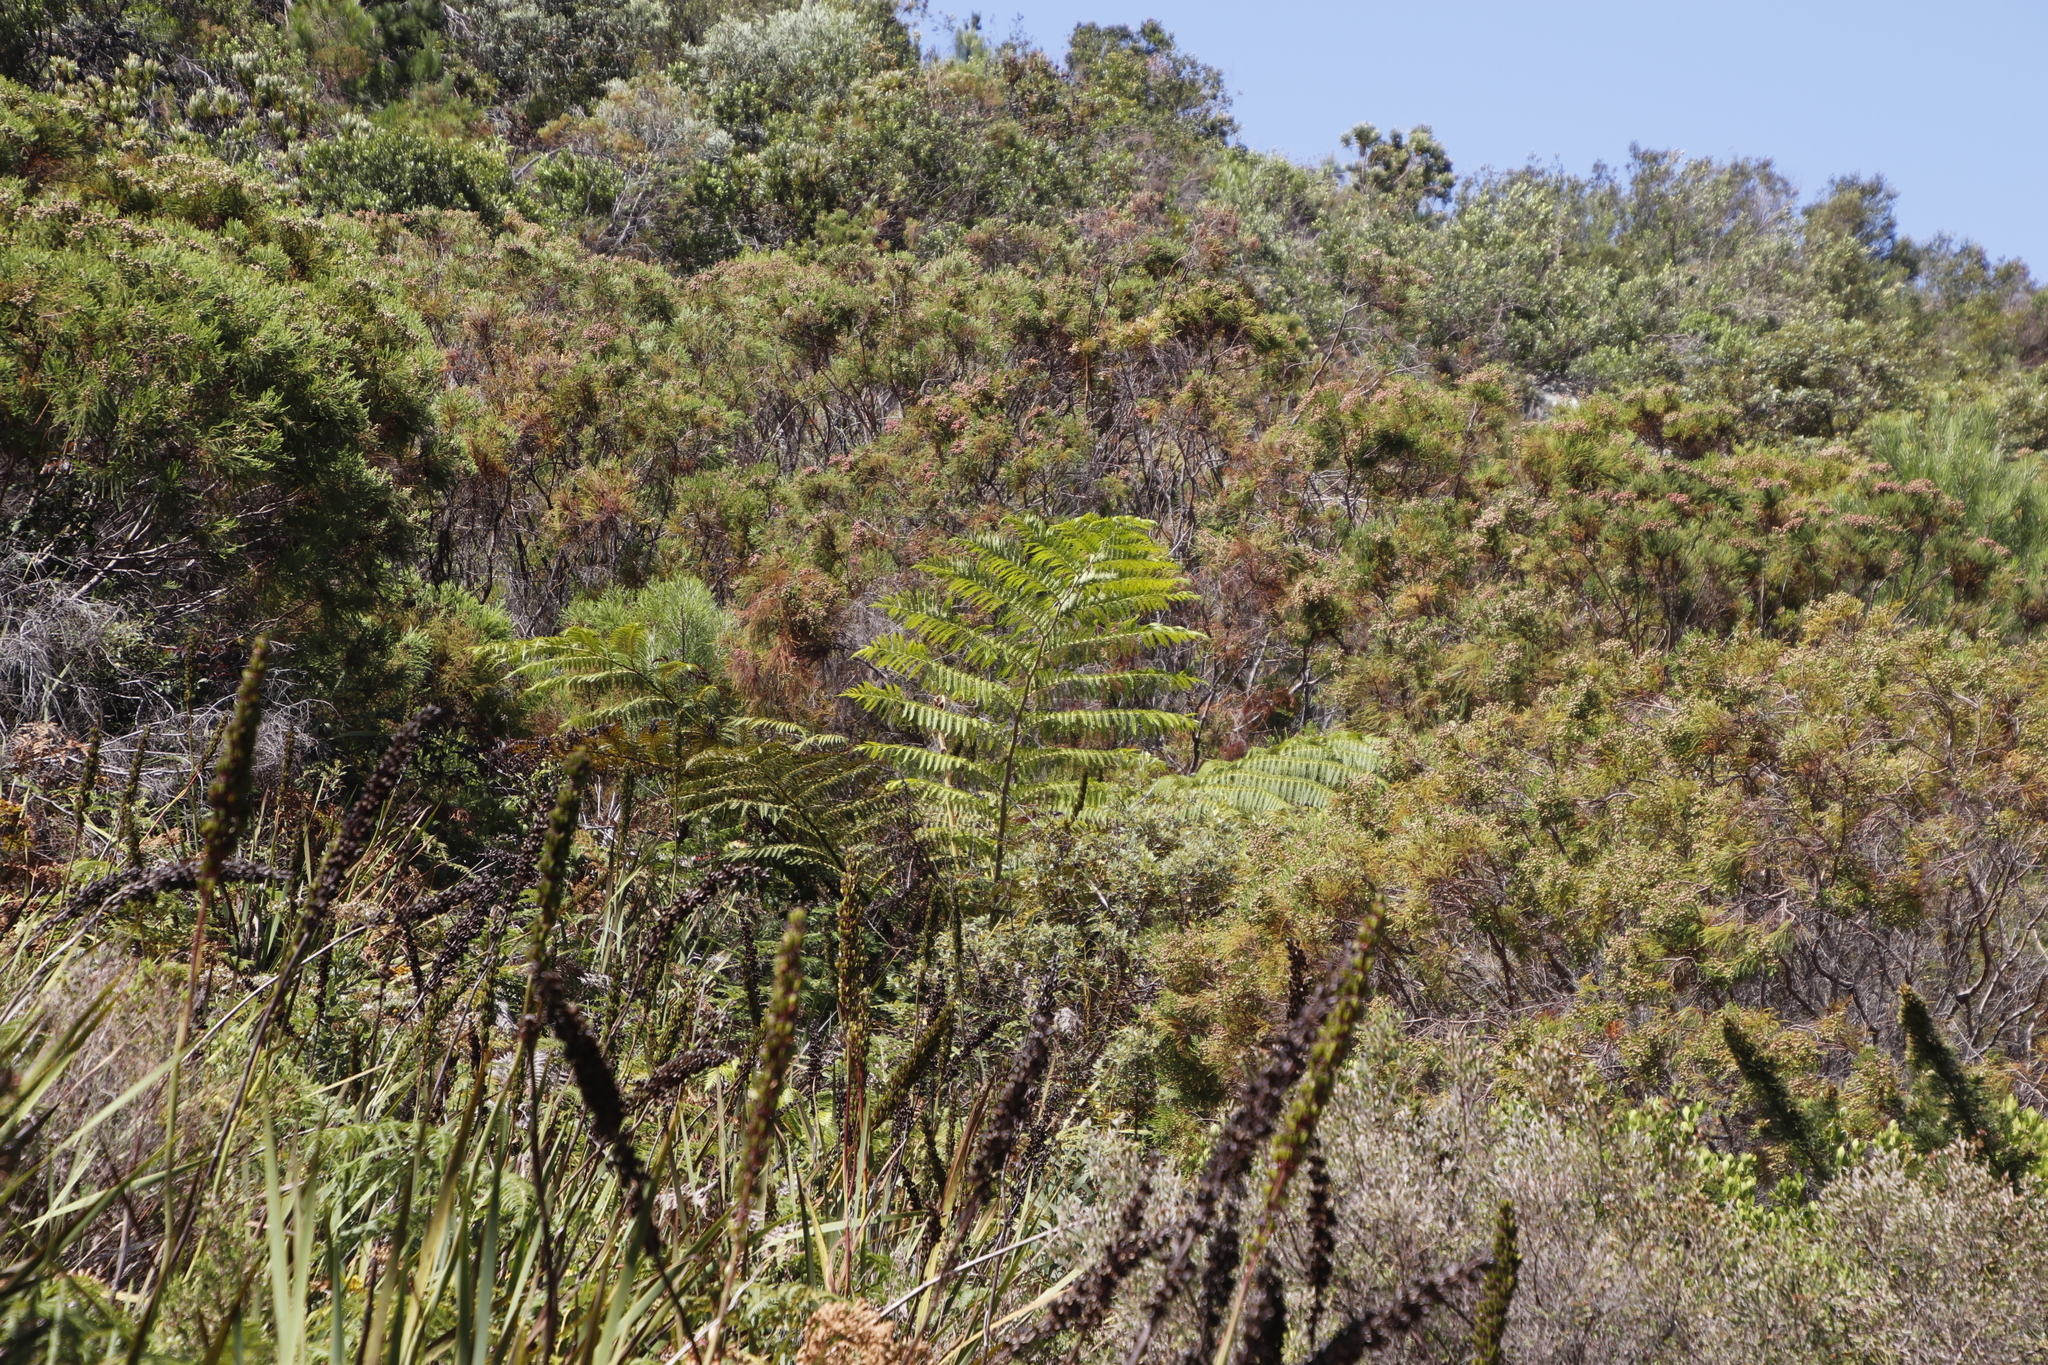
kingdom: Plantae
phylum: Tracheophyta
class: Polypodiopsida
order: Cyatheales
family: Cyatheaceae
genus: Sphaeropteris
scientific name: Sphaeropteris cooperi
